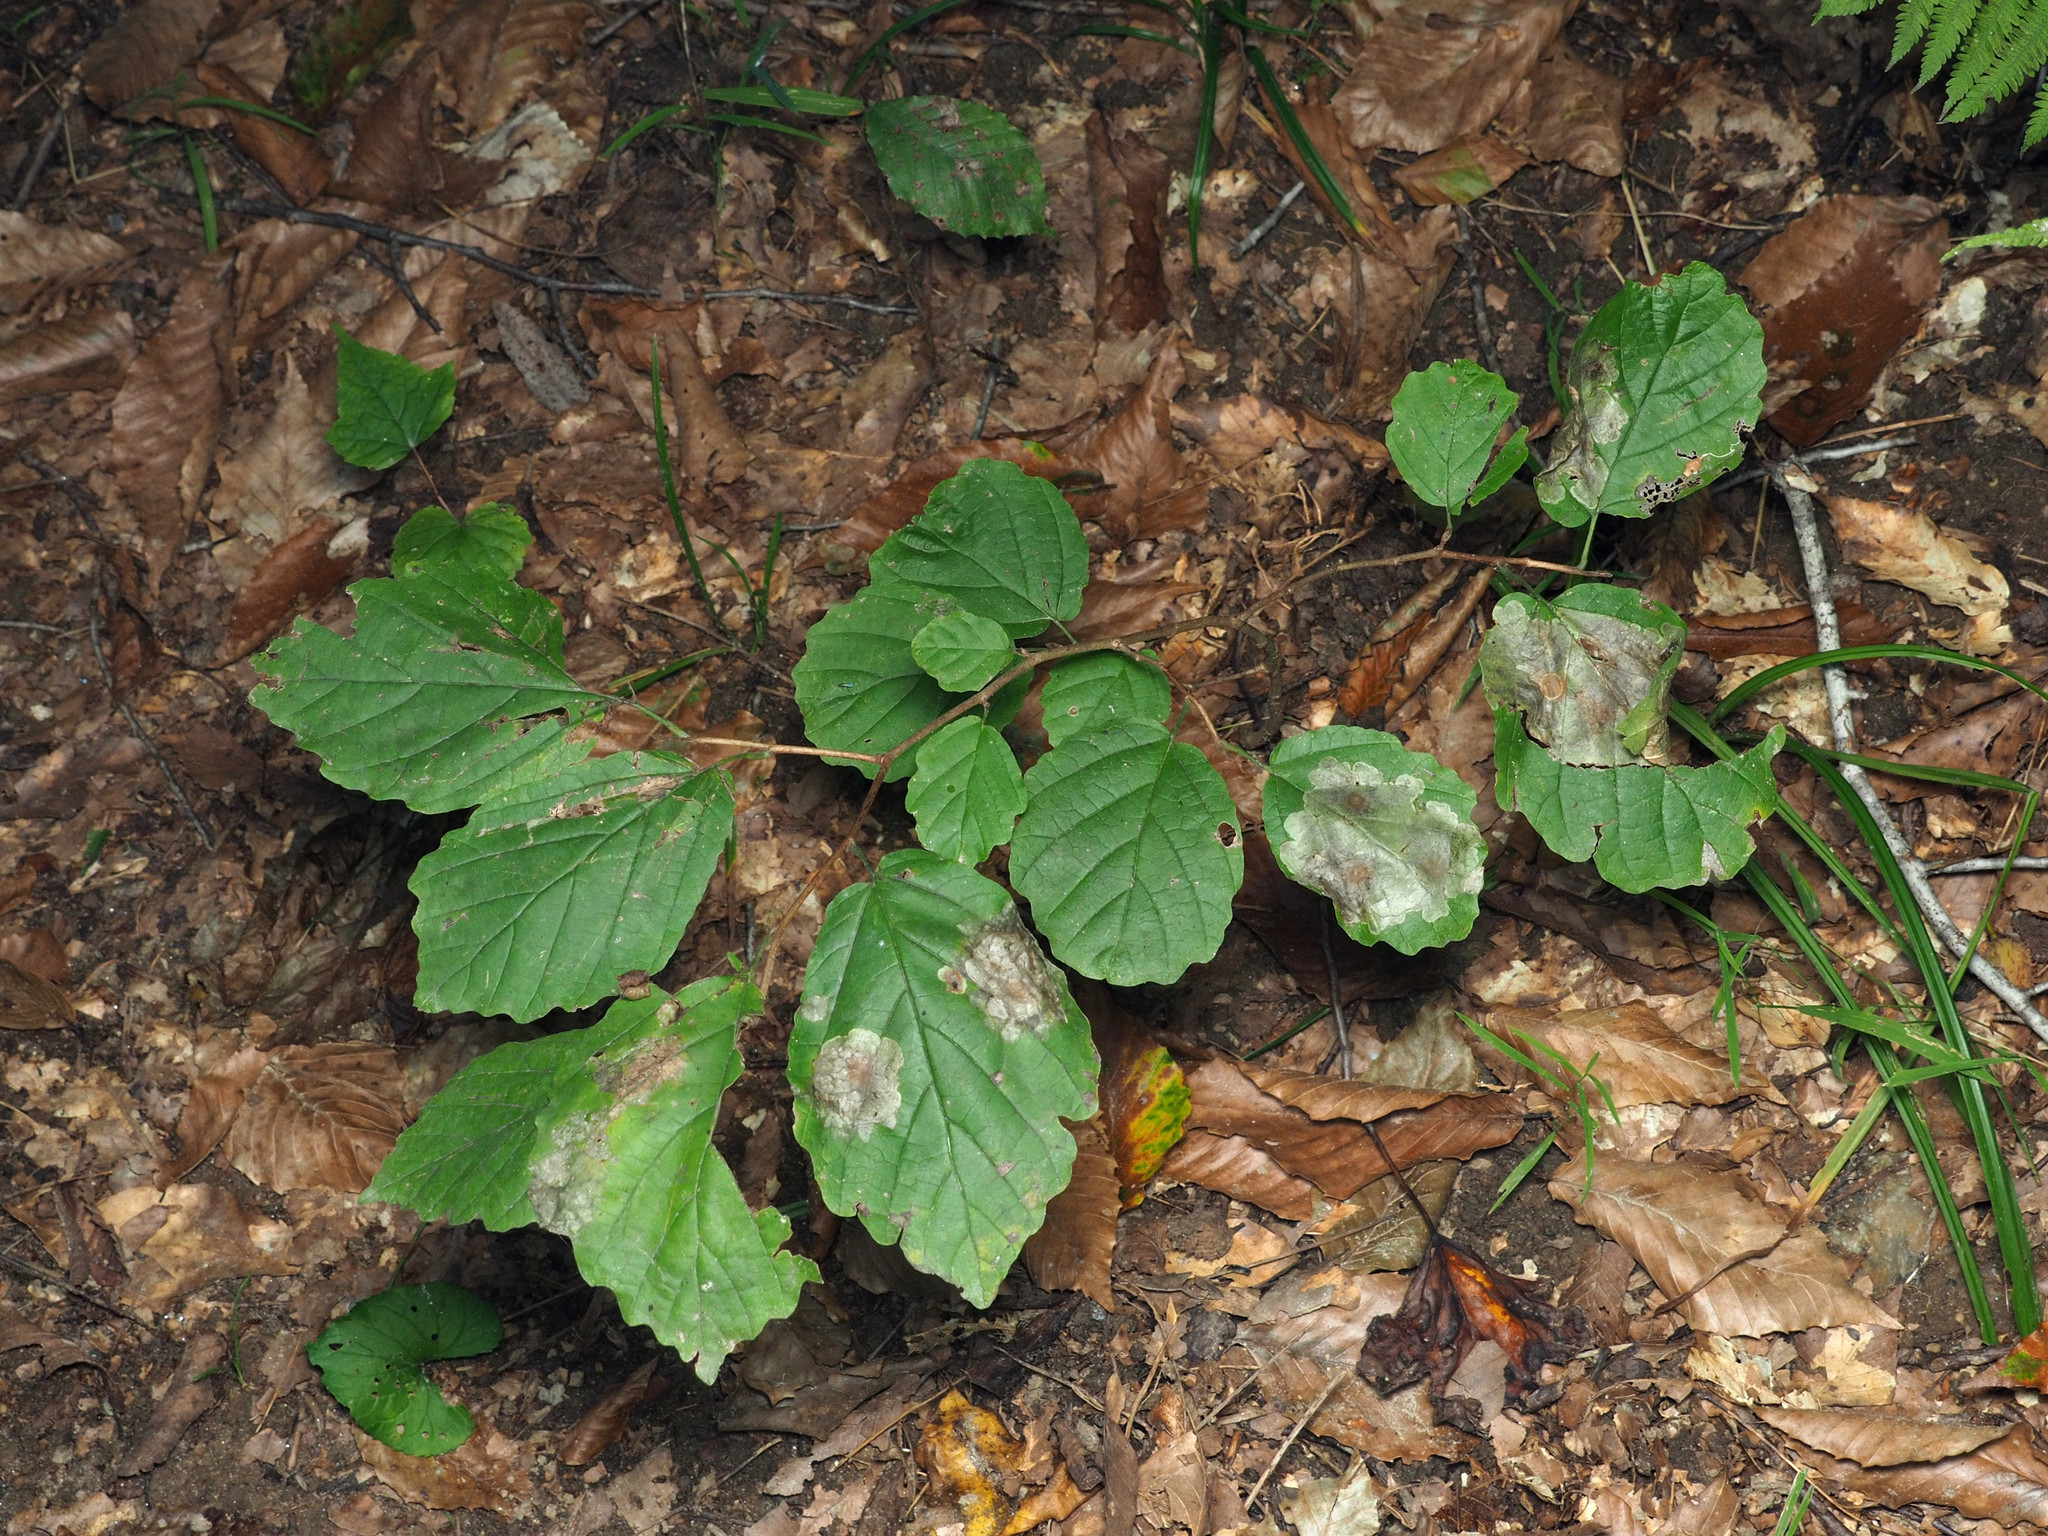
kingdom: Animalia
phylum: Arthropoda
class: Insecta
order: Lepidoptera
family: Gracillariidae
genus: Cameraria
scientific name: Cameraria hamameliella
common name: Witchhazel leafminer
